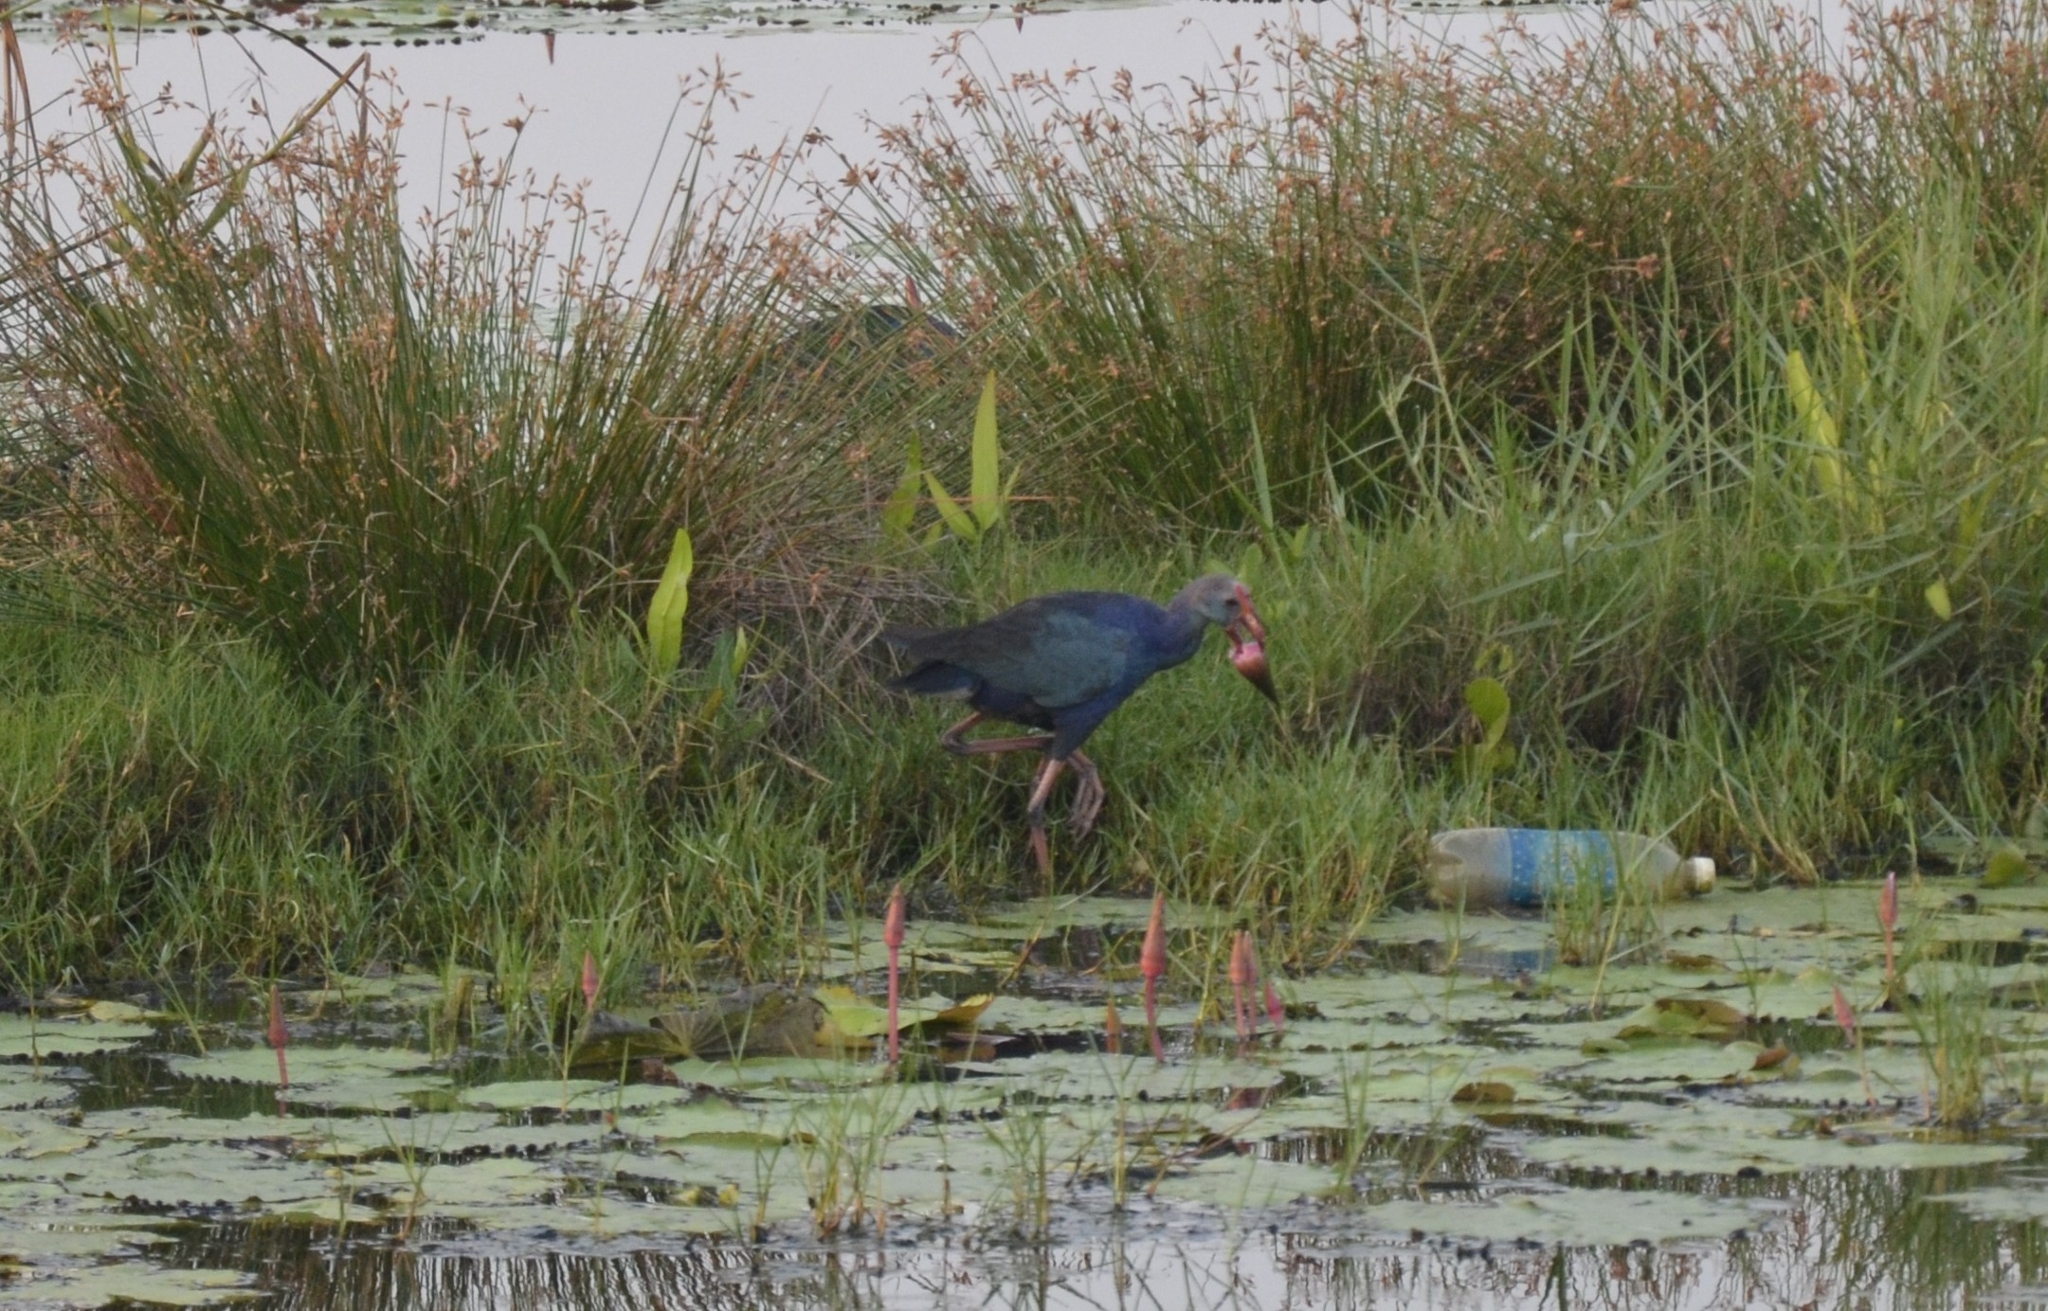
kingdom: Animalia
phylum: Chordata
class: Aves
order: Gruiformes
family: Rallidae
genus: Porphyrio
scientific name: Porphyrio porphyrio
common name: Purple swamphen
